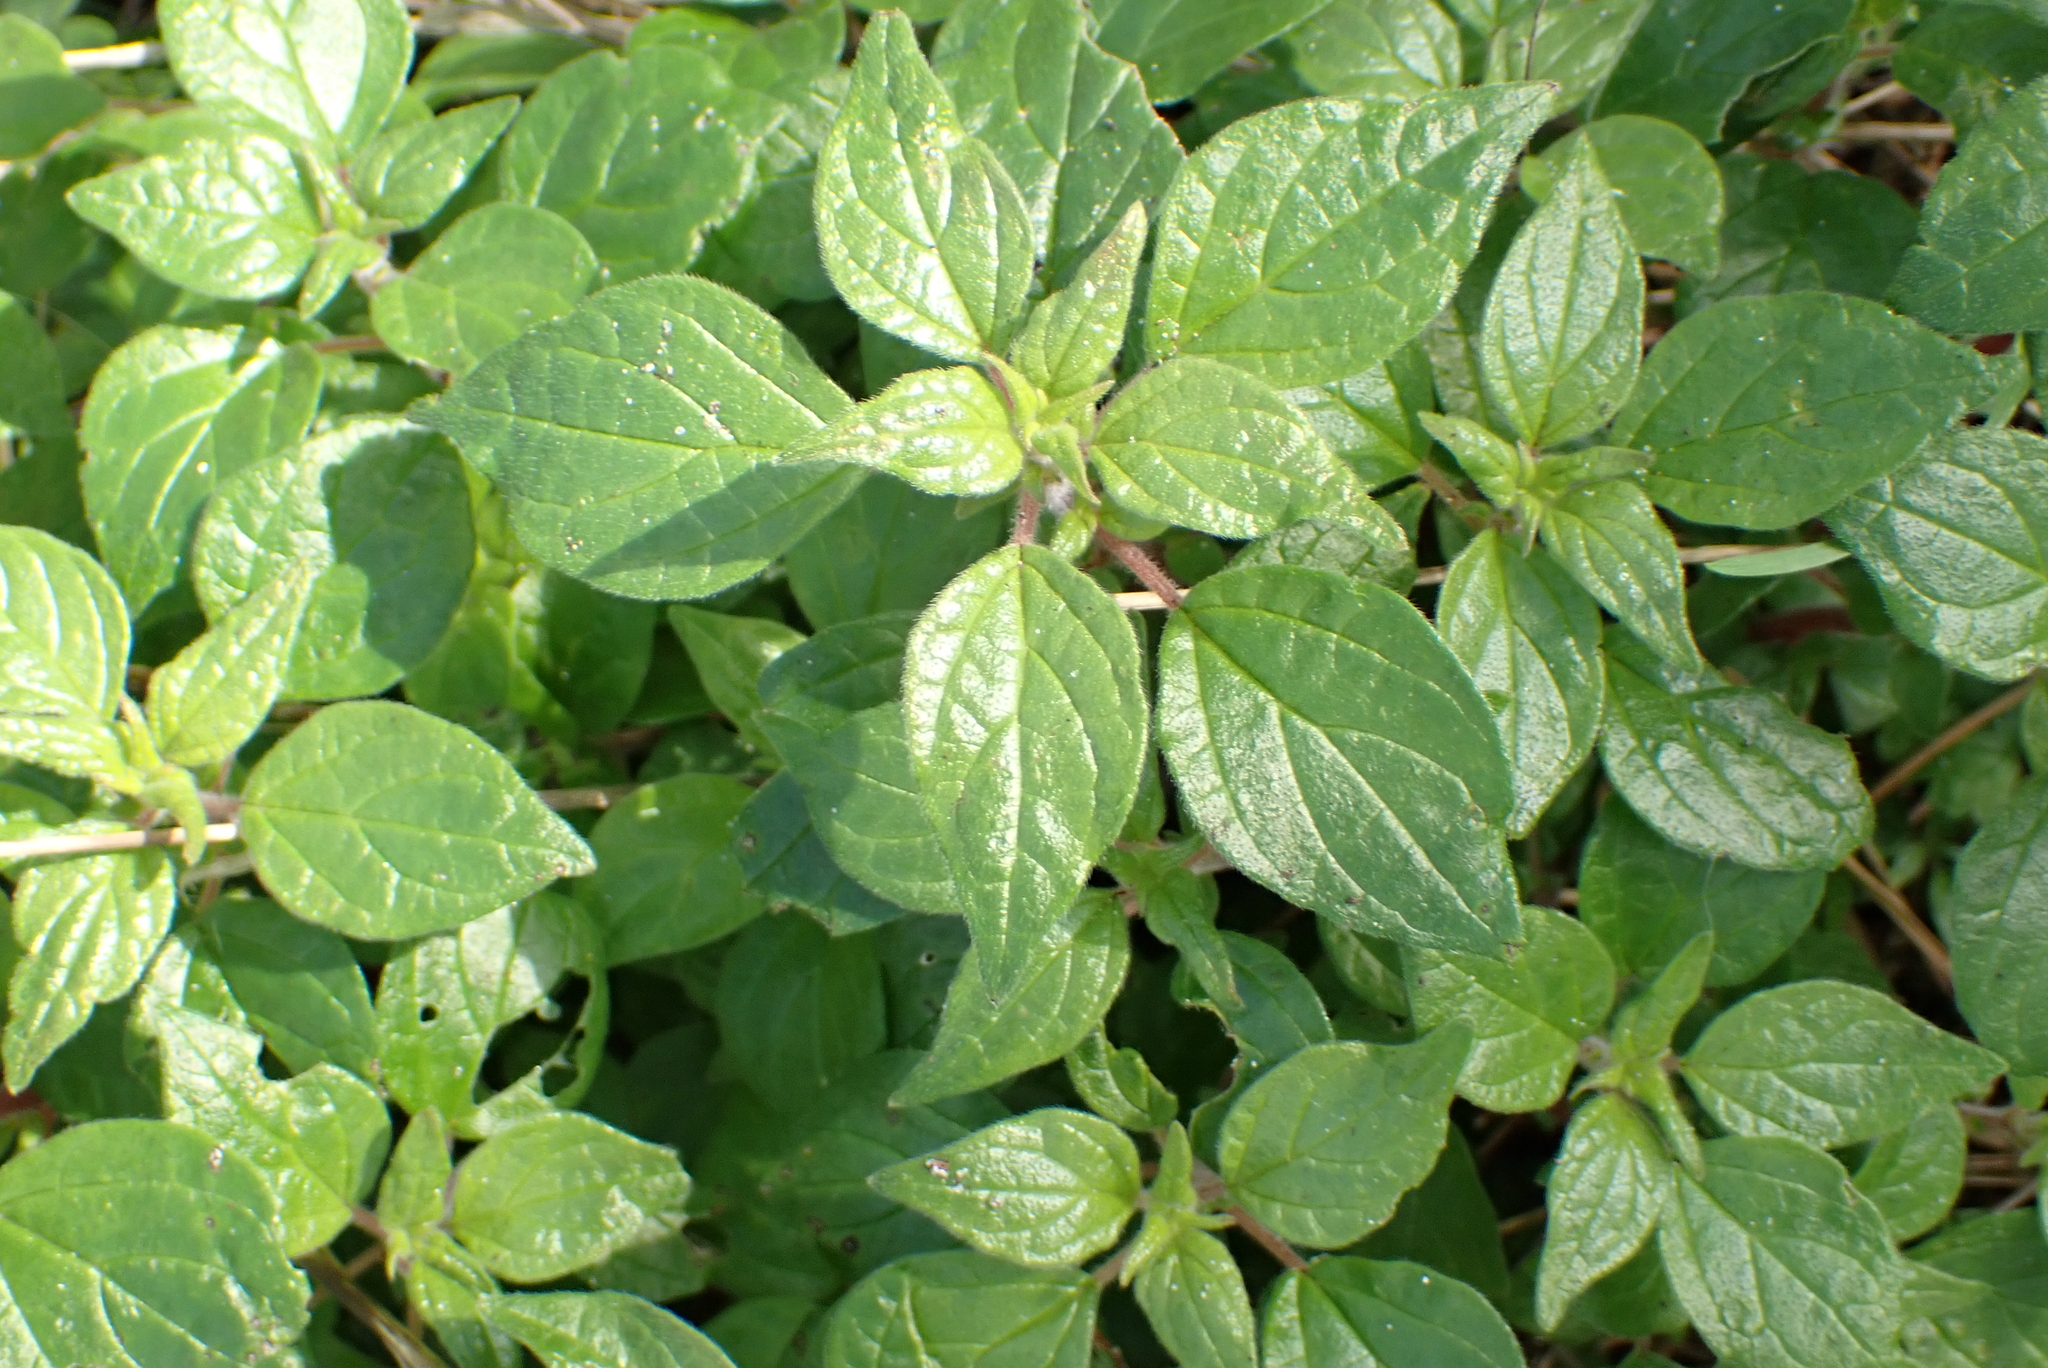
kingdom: Plantae
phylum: Tracheophyta
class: Magnoliopsida
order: Rosales
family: Urticaceae
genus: Parietaria
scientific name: Parietaria judaica
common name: Pellitory-of-the-wall
